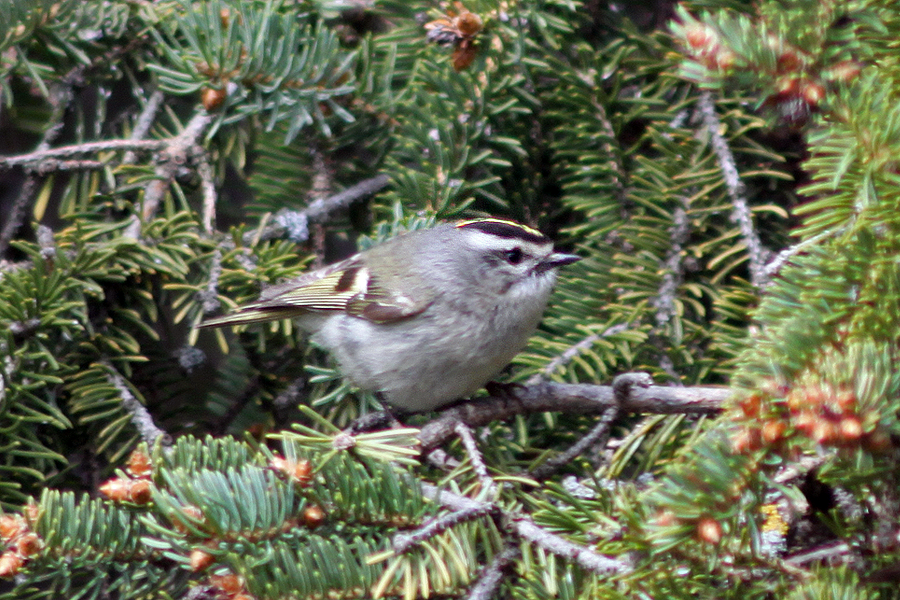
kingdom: Animalia
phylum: Chordata
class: Aves
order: Passeriformes
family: Regulidae
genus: Regulus
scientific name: Regulus satrapa
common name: Golden-crowned kinglet
